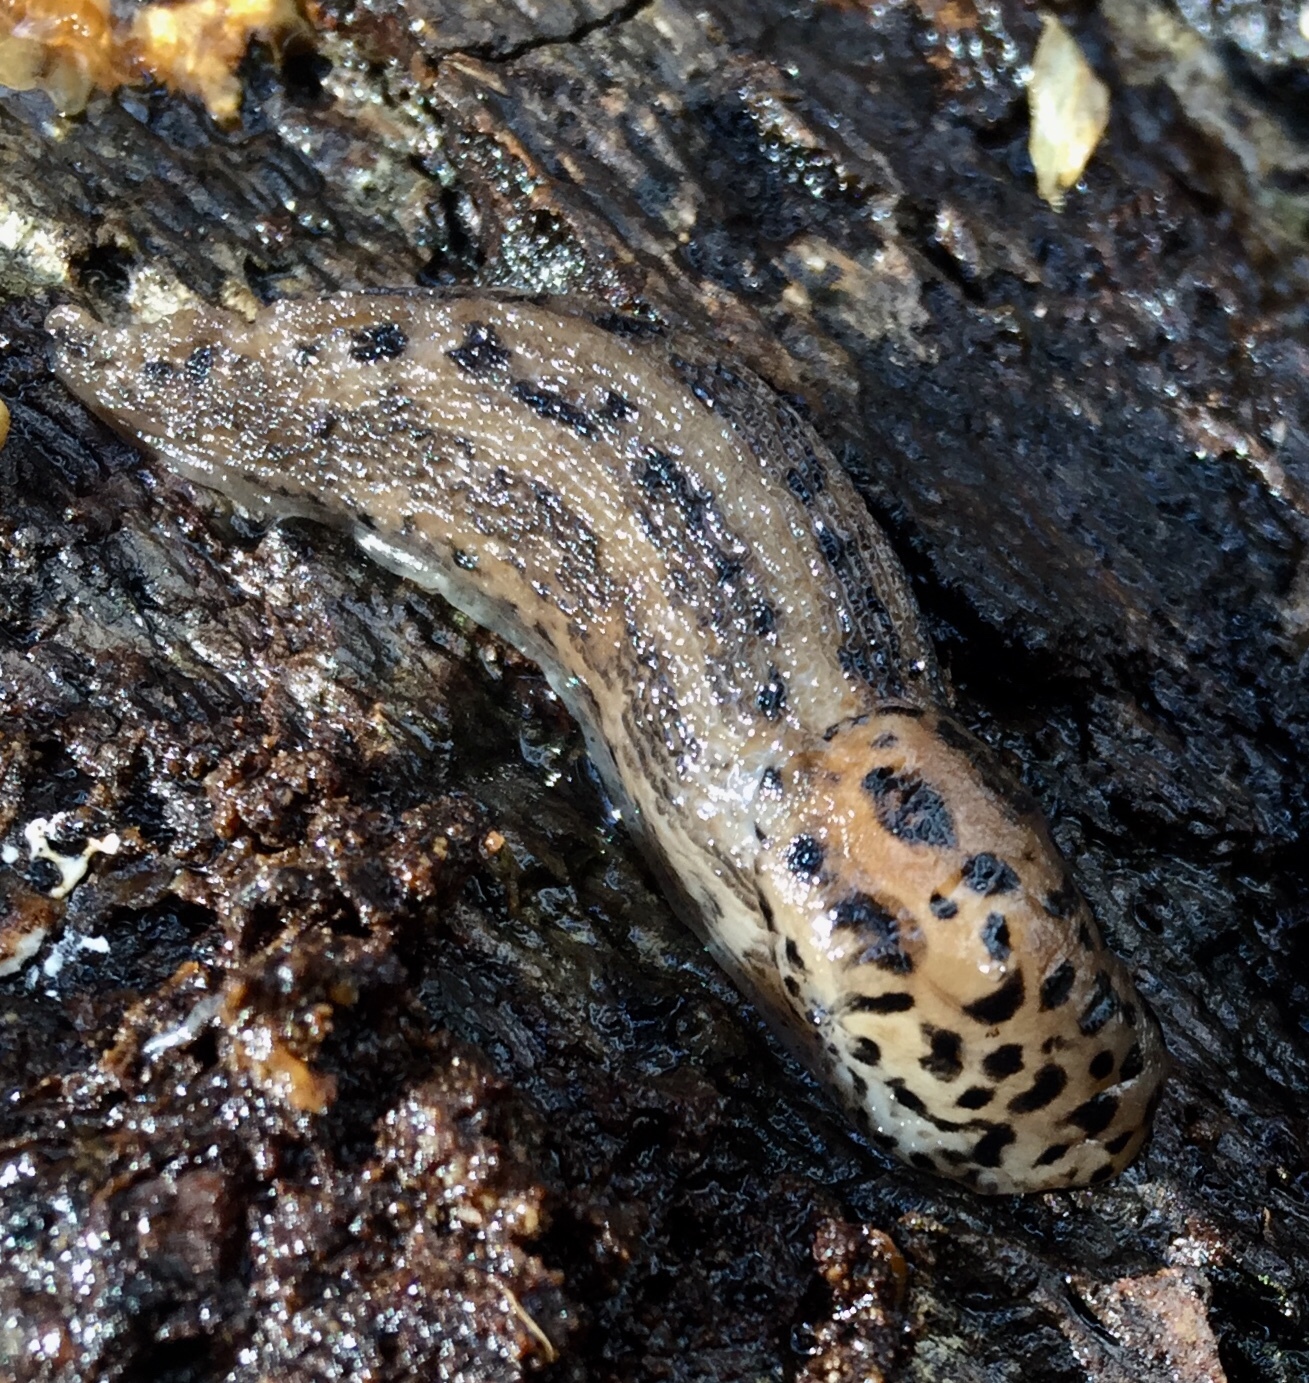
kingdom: Animalia
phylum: Mollusca
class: Gastropoda
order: Stylommatophora
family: Limacidae
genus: Limax
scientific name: Limax maximus
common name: Great grey slug
